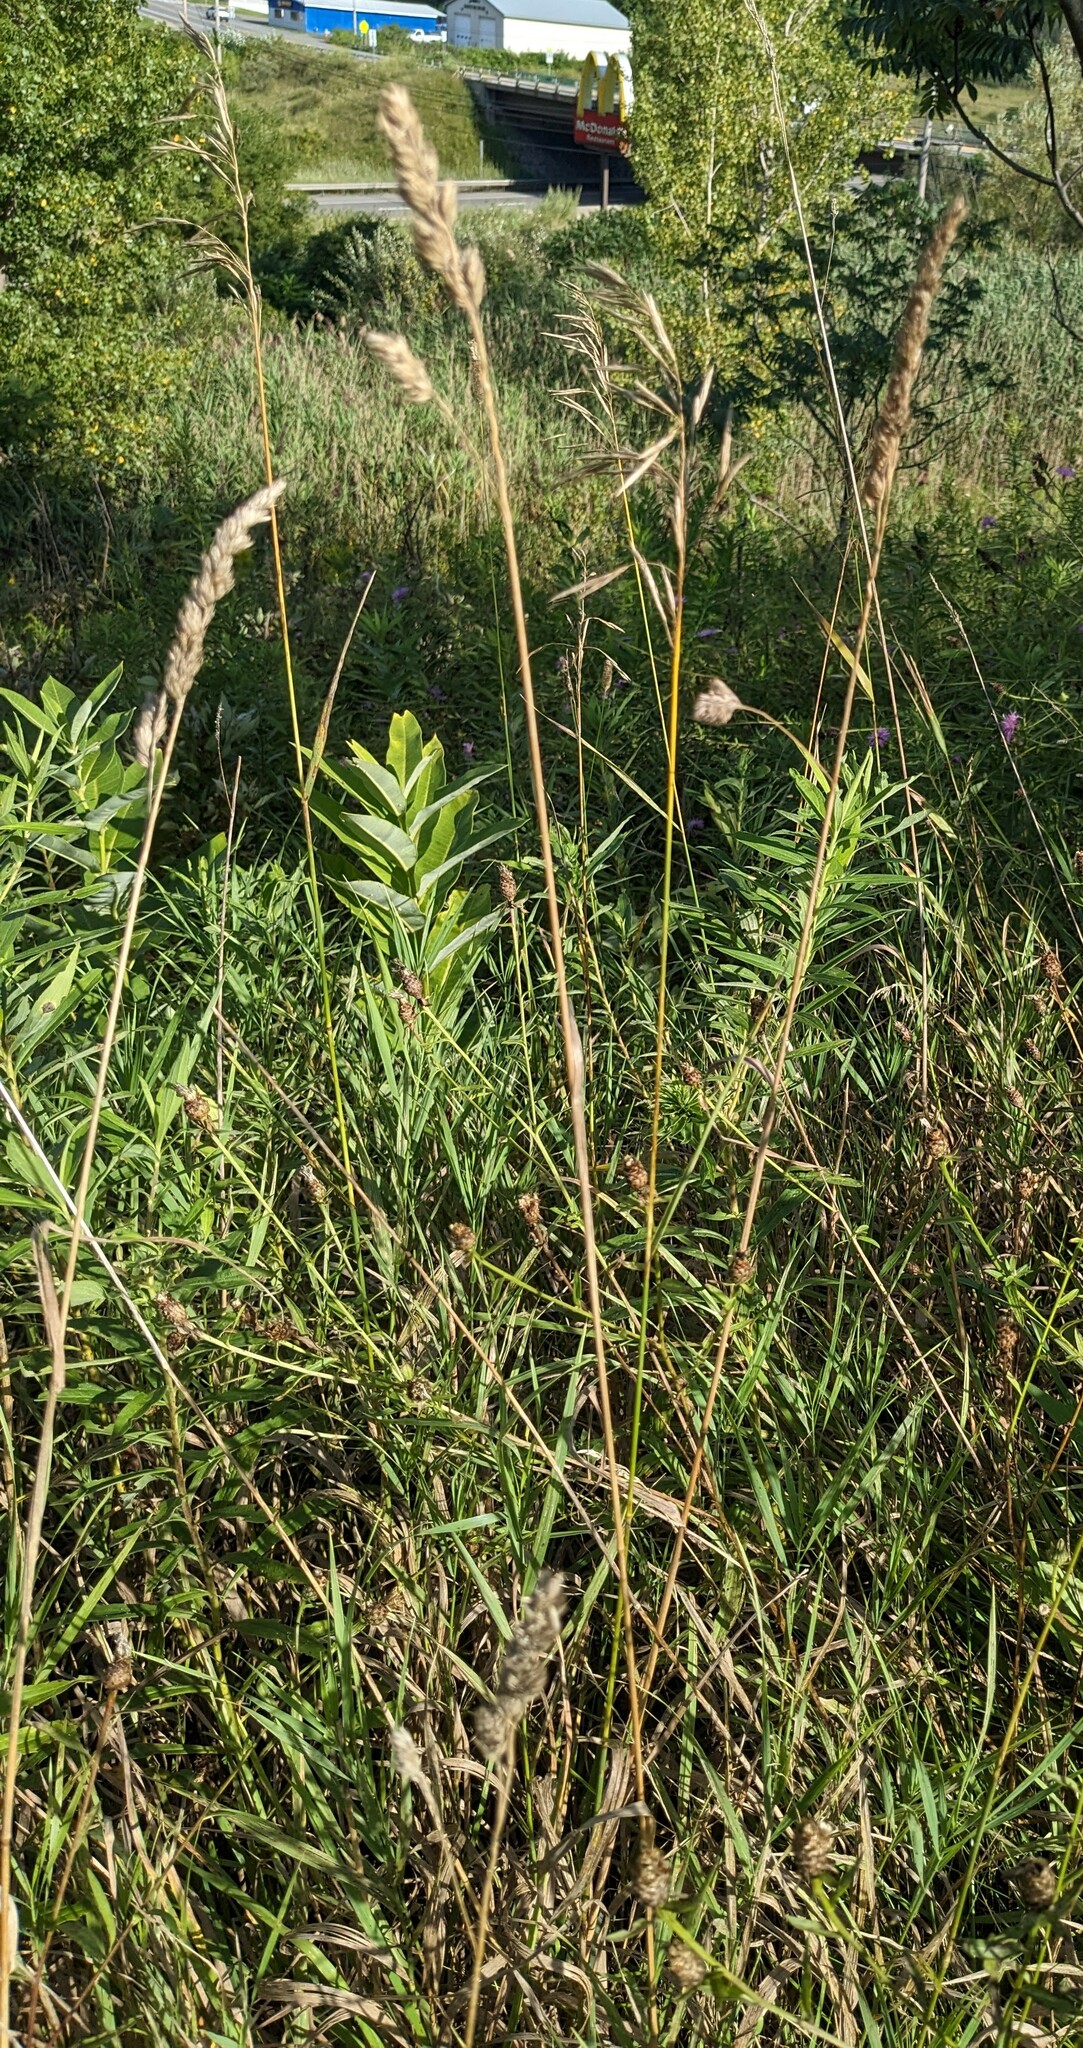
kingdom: Plantae
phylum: Tracheophyta
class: Liliopsida
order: Poales
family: Poaceae
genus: Dactylis
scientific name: Dactylis glomerata
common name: Orchardgrass
